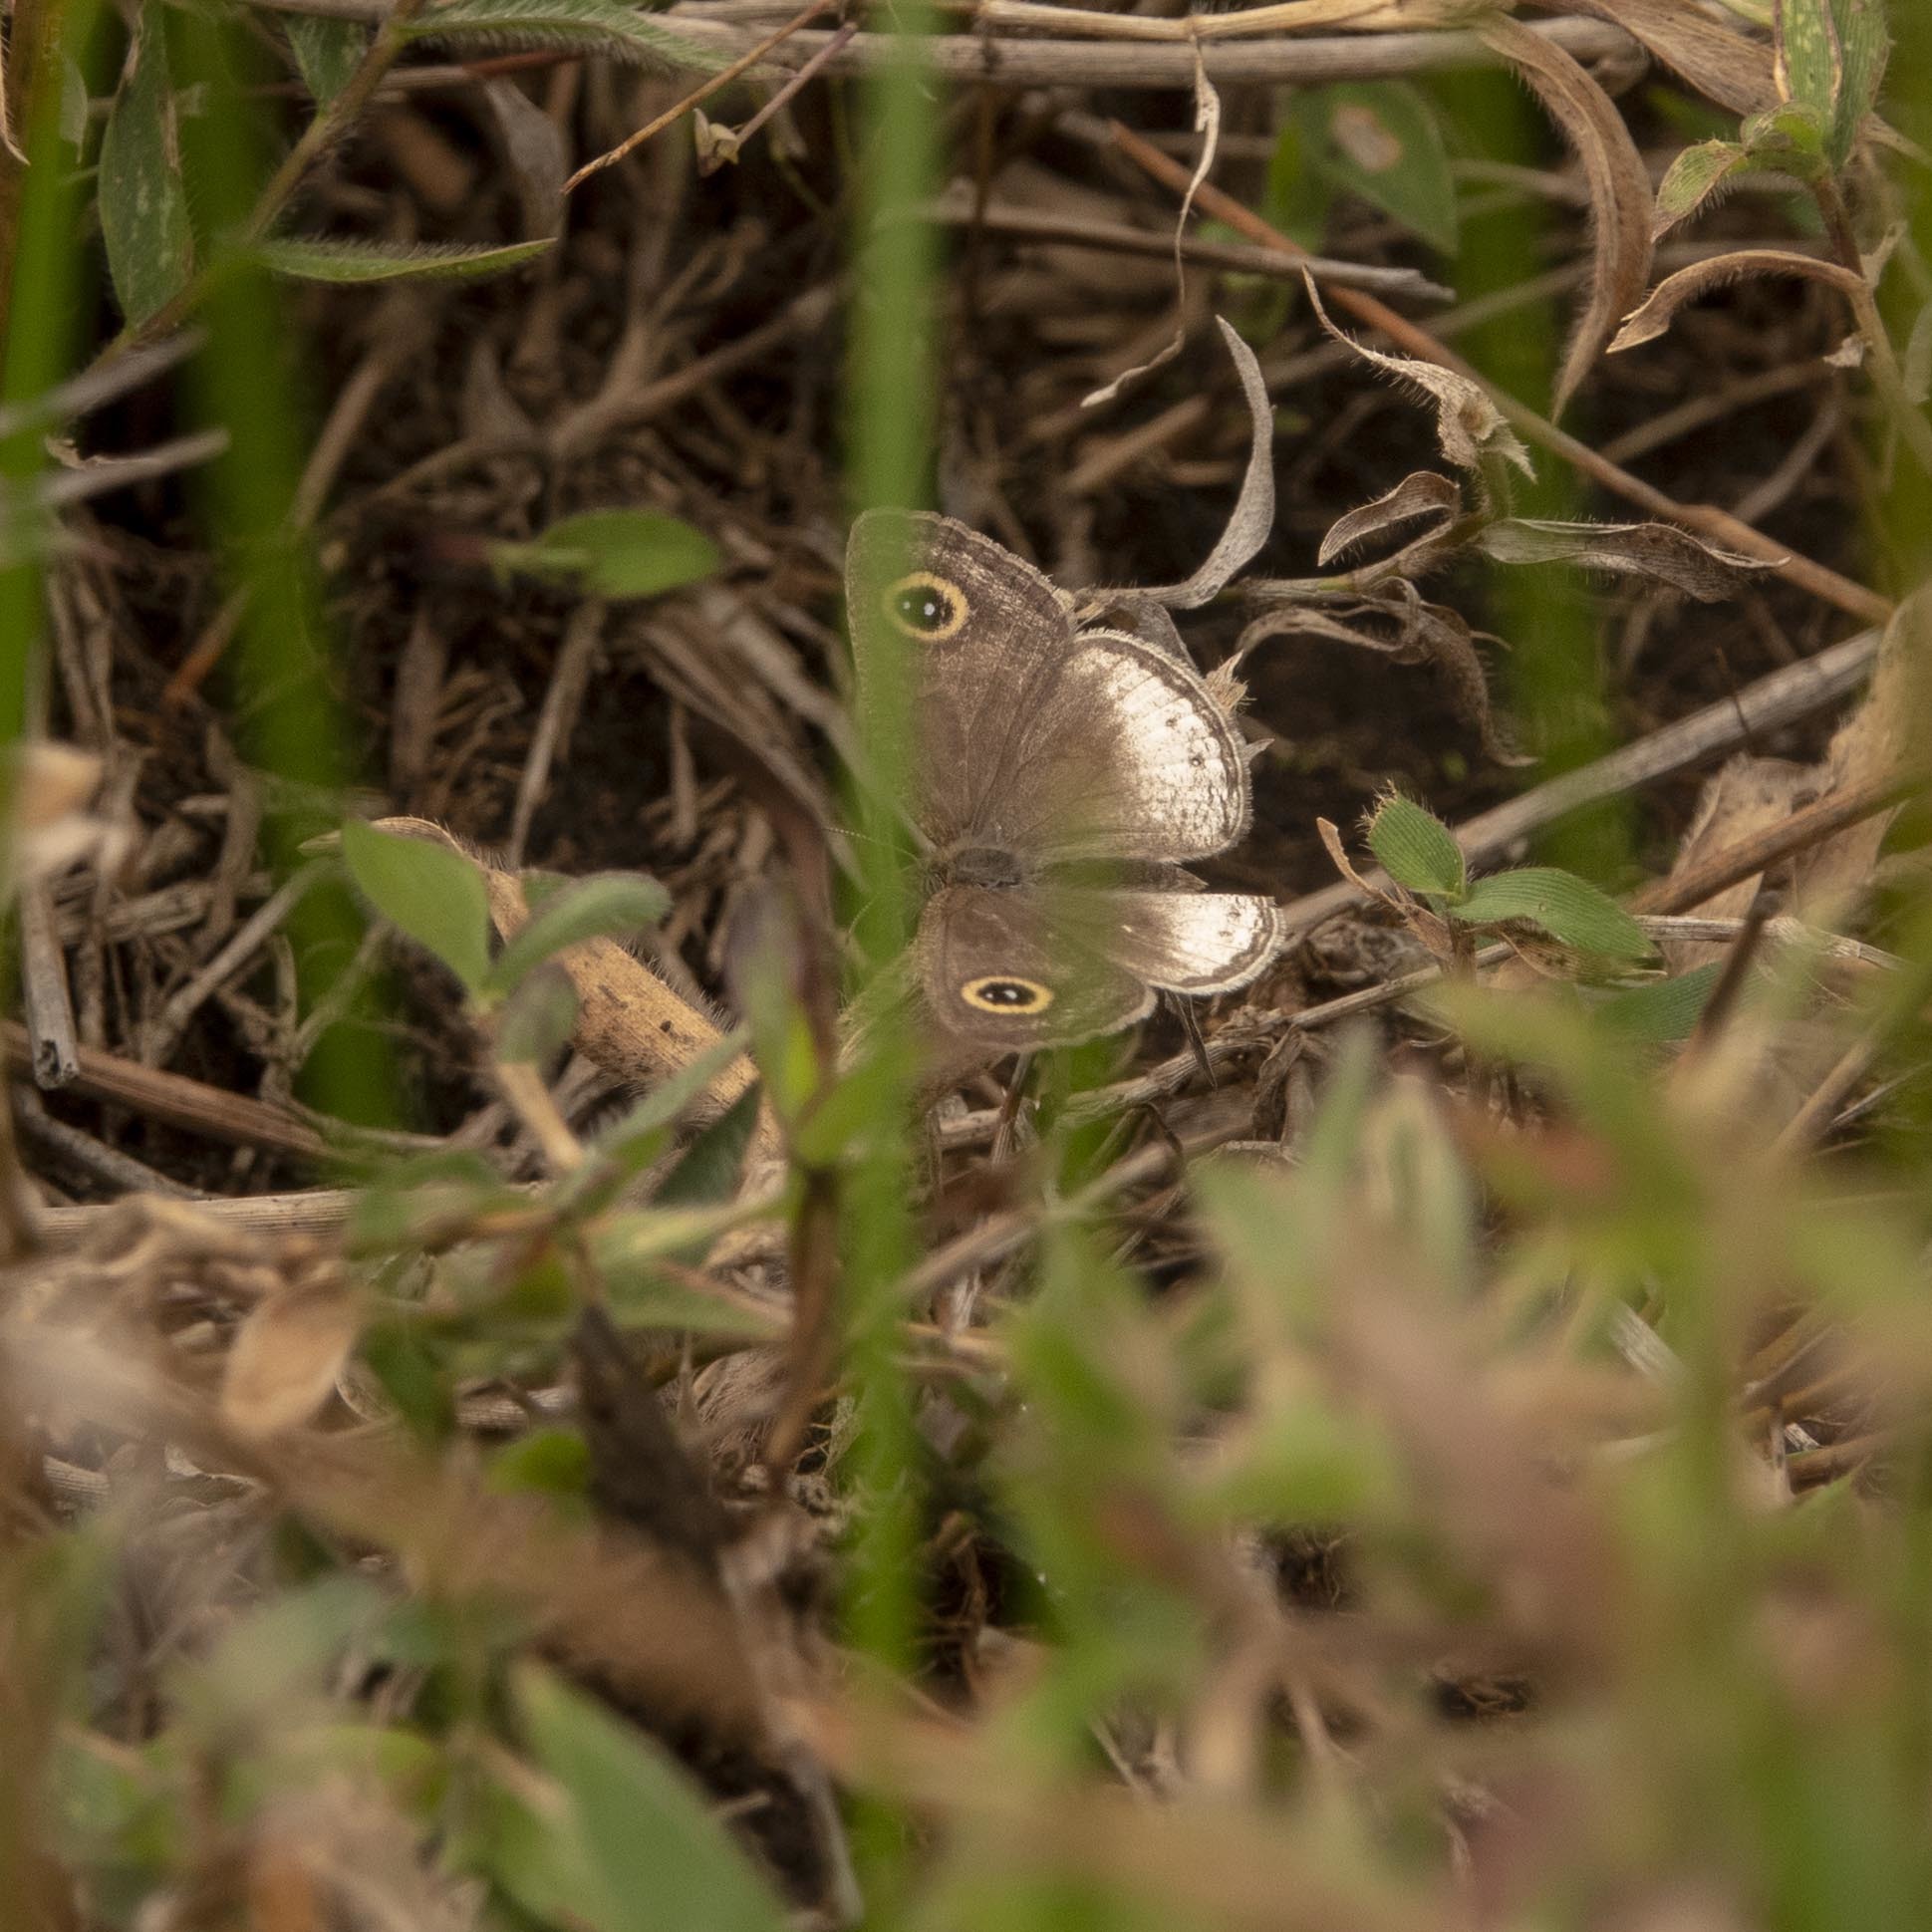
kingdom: Animalia
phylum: Arthropoda
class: Insecta
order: Lepidoptera
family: Nymphalidae
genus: Ypthima
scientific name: Ypthima ceylonica
